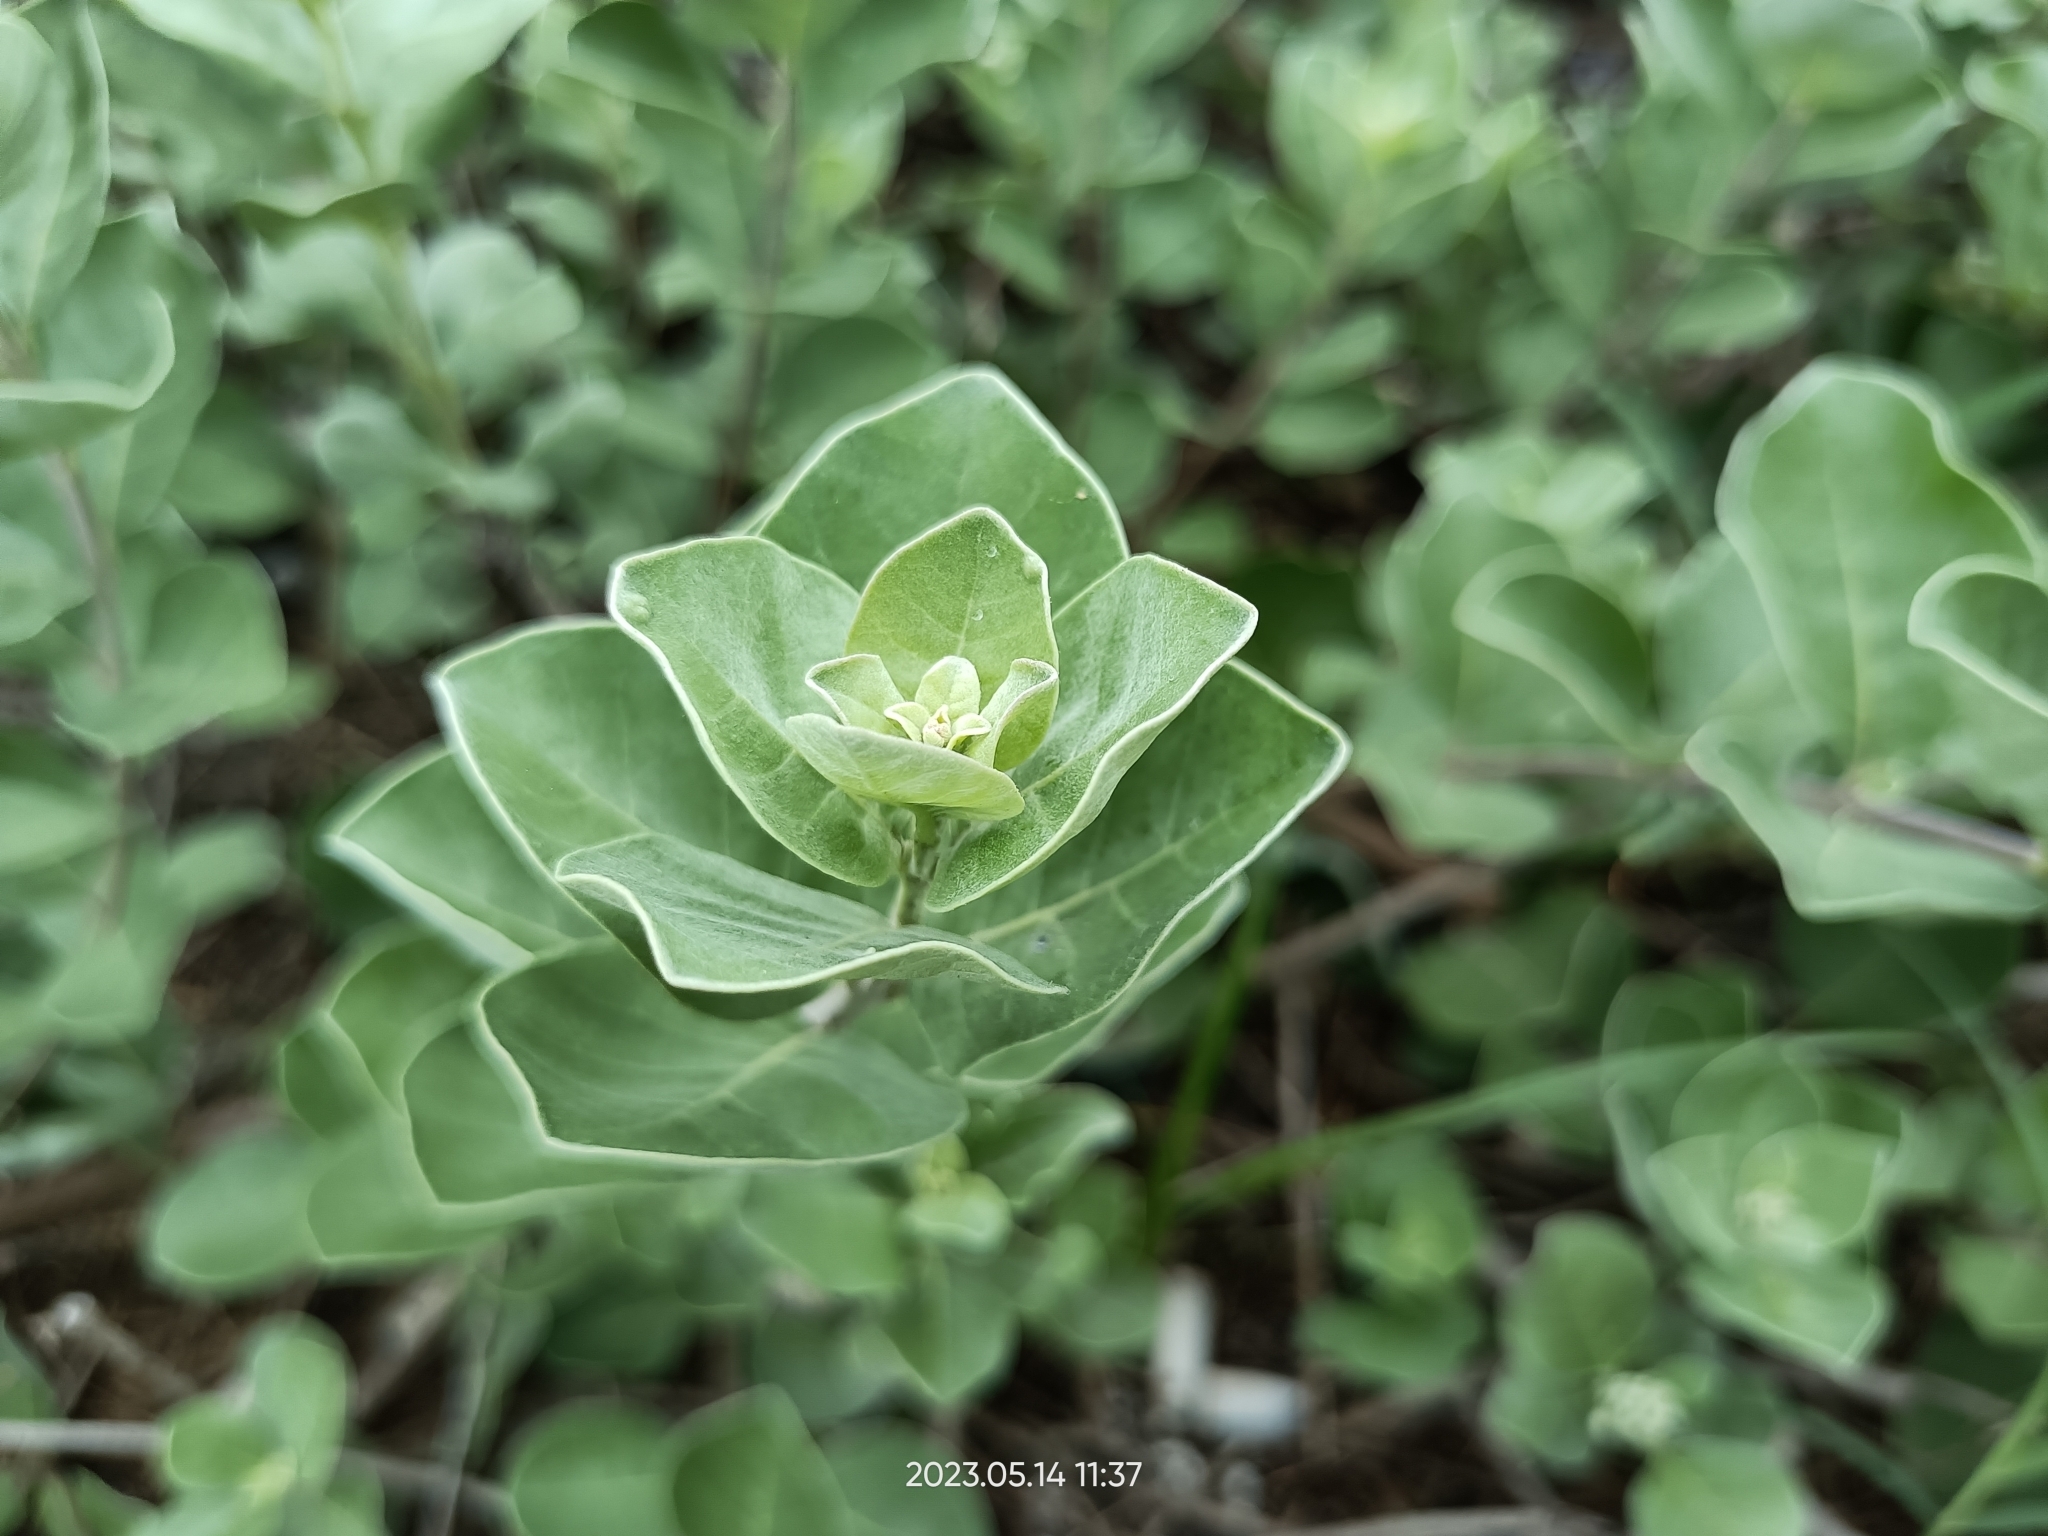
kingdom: Plantae
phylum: Tracheophyta
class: Magnoliopsida
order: Lamiales
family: Lamiaceae
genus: Vitex
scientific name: Vitex rotundifolia
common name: Beach vitex
